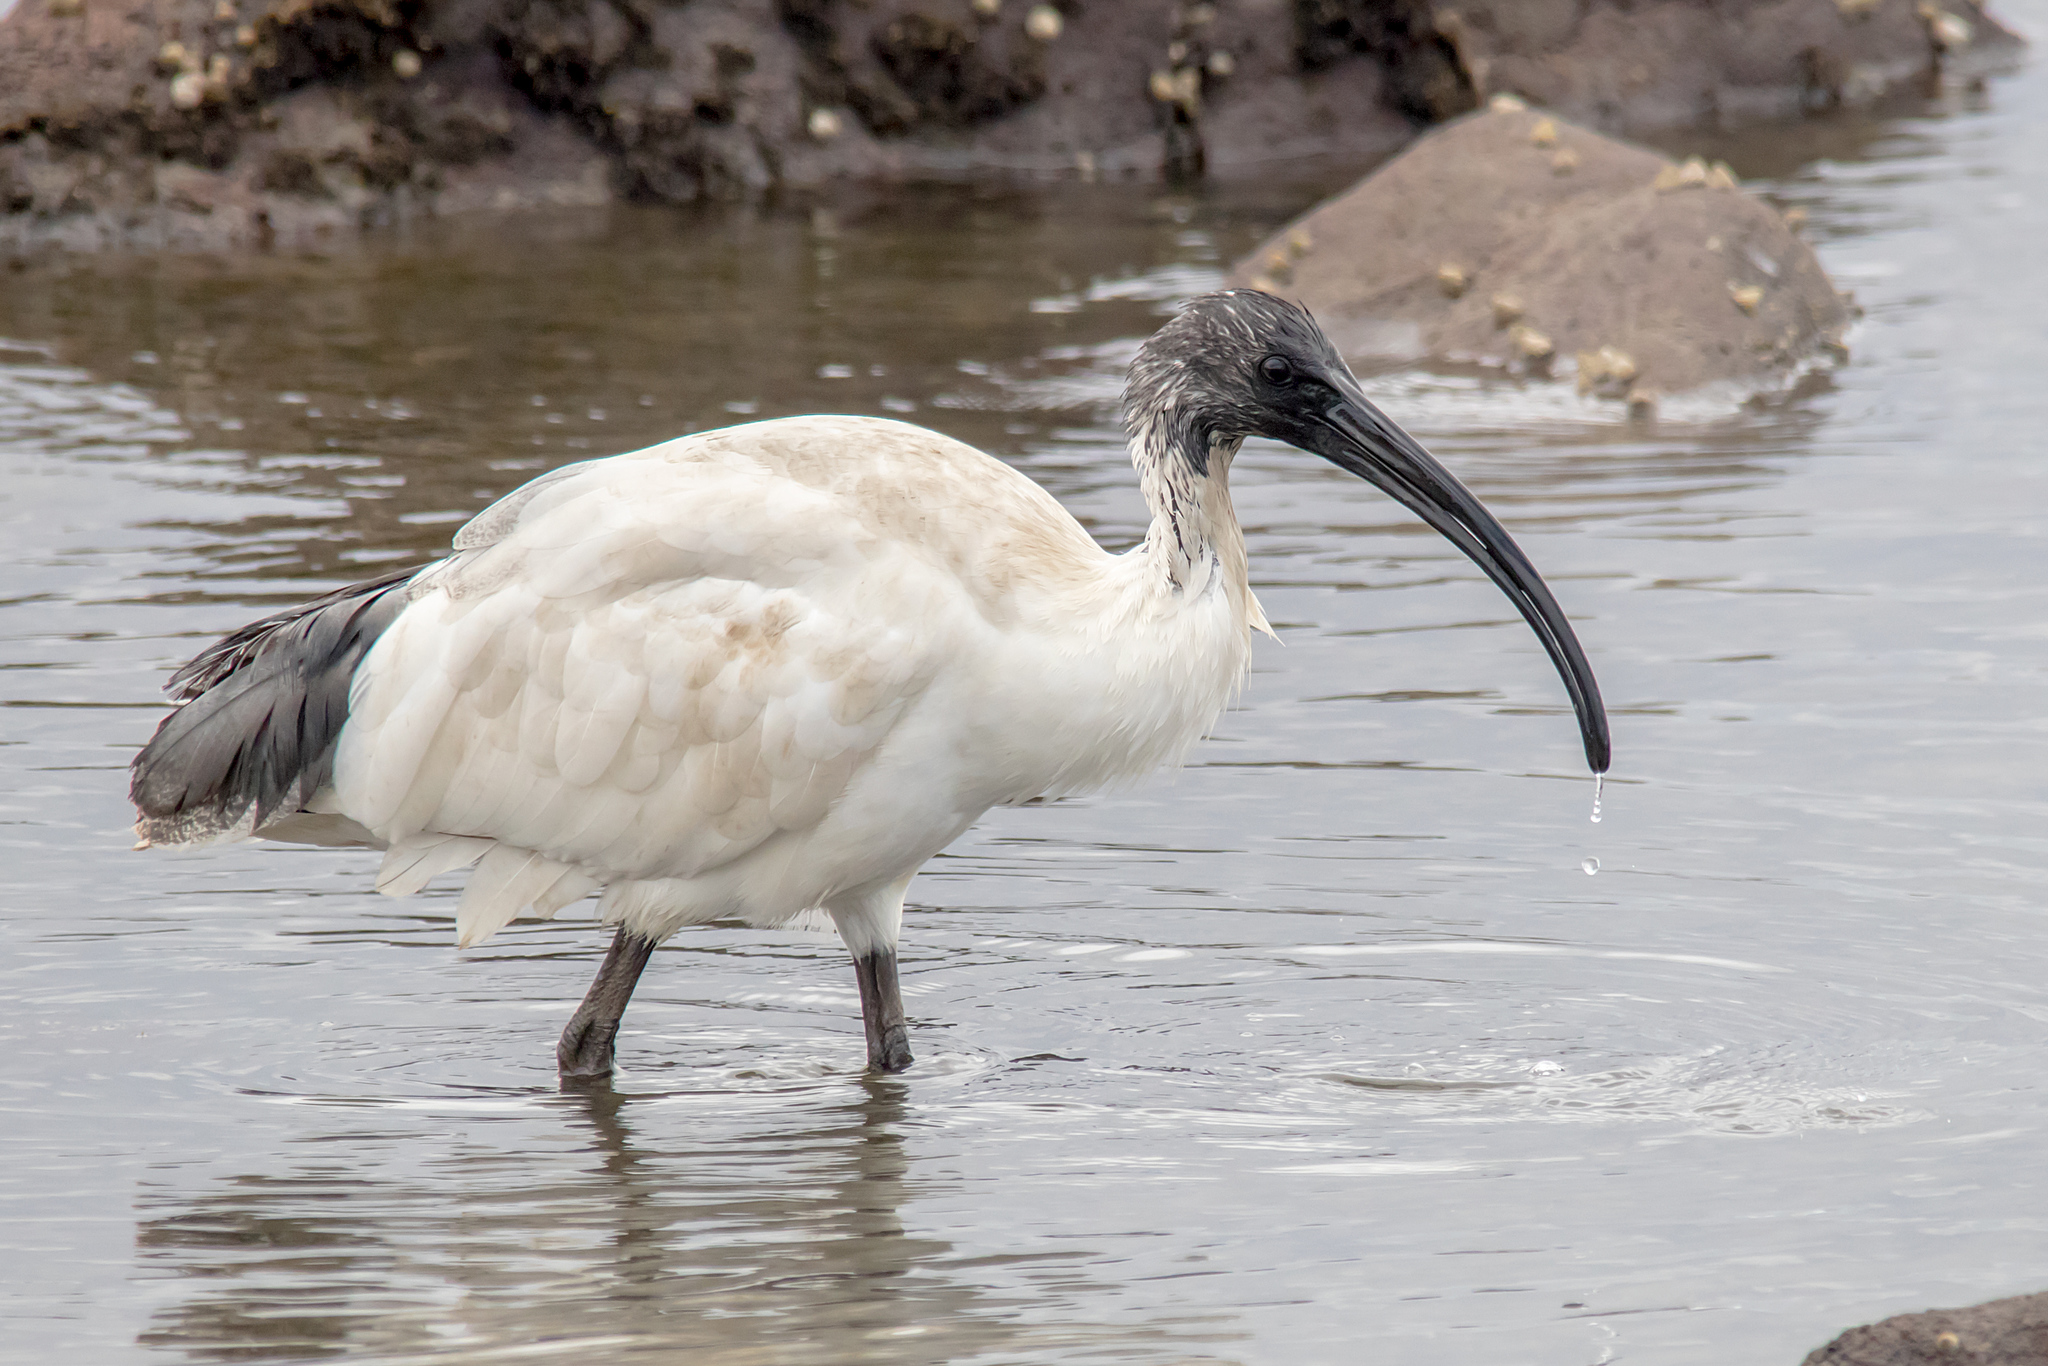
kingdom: Animalia
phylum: Chordata
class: Aves
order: Pelecaniformes
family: Threskiornithidae
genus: Threskiornis
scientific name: Threskiornis molucca
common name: Australian white ibis
